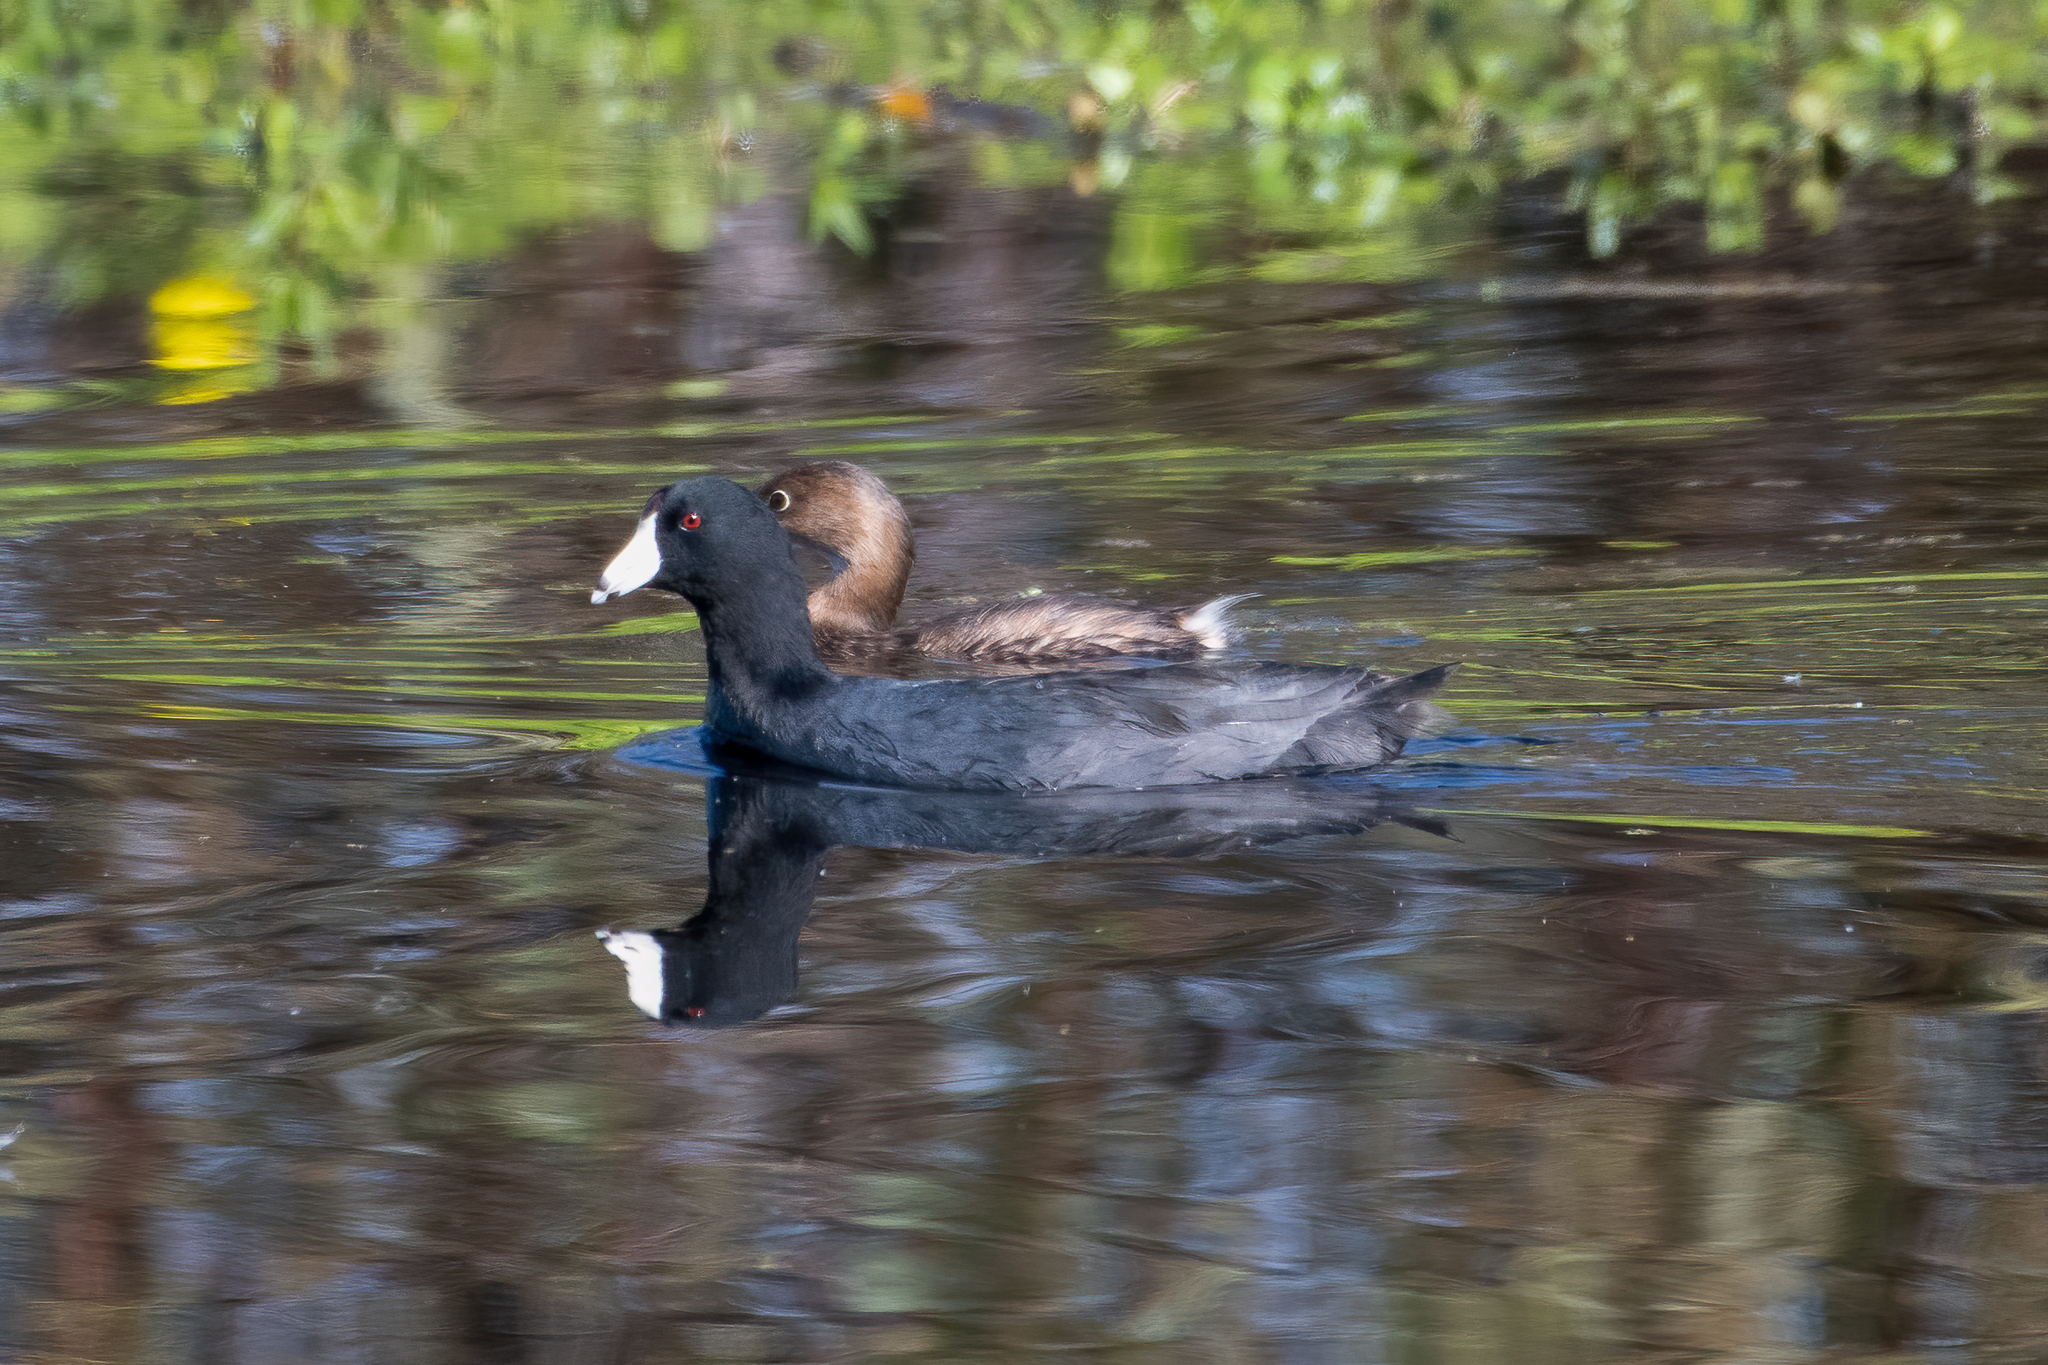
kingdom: Animalia
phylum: Chordata
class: Aves
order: Gruiformes
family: Rallidae
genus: Fulica
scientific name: Fulica americana
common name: American coot
